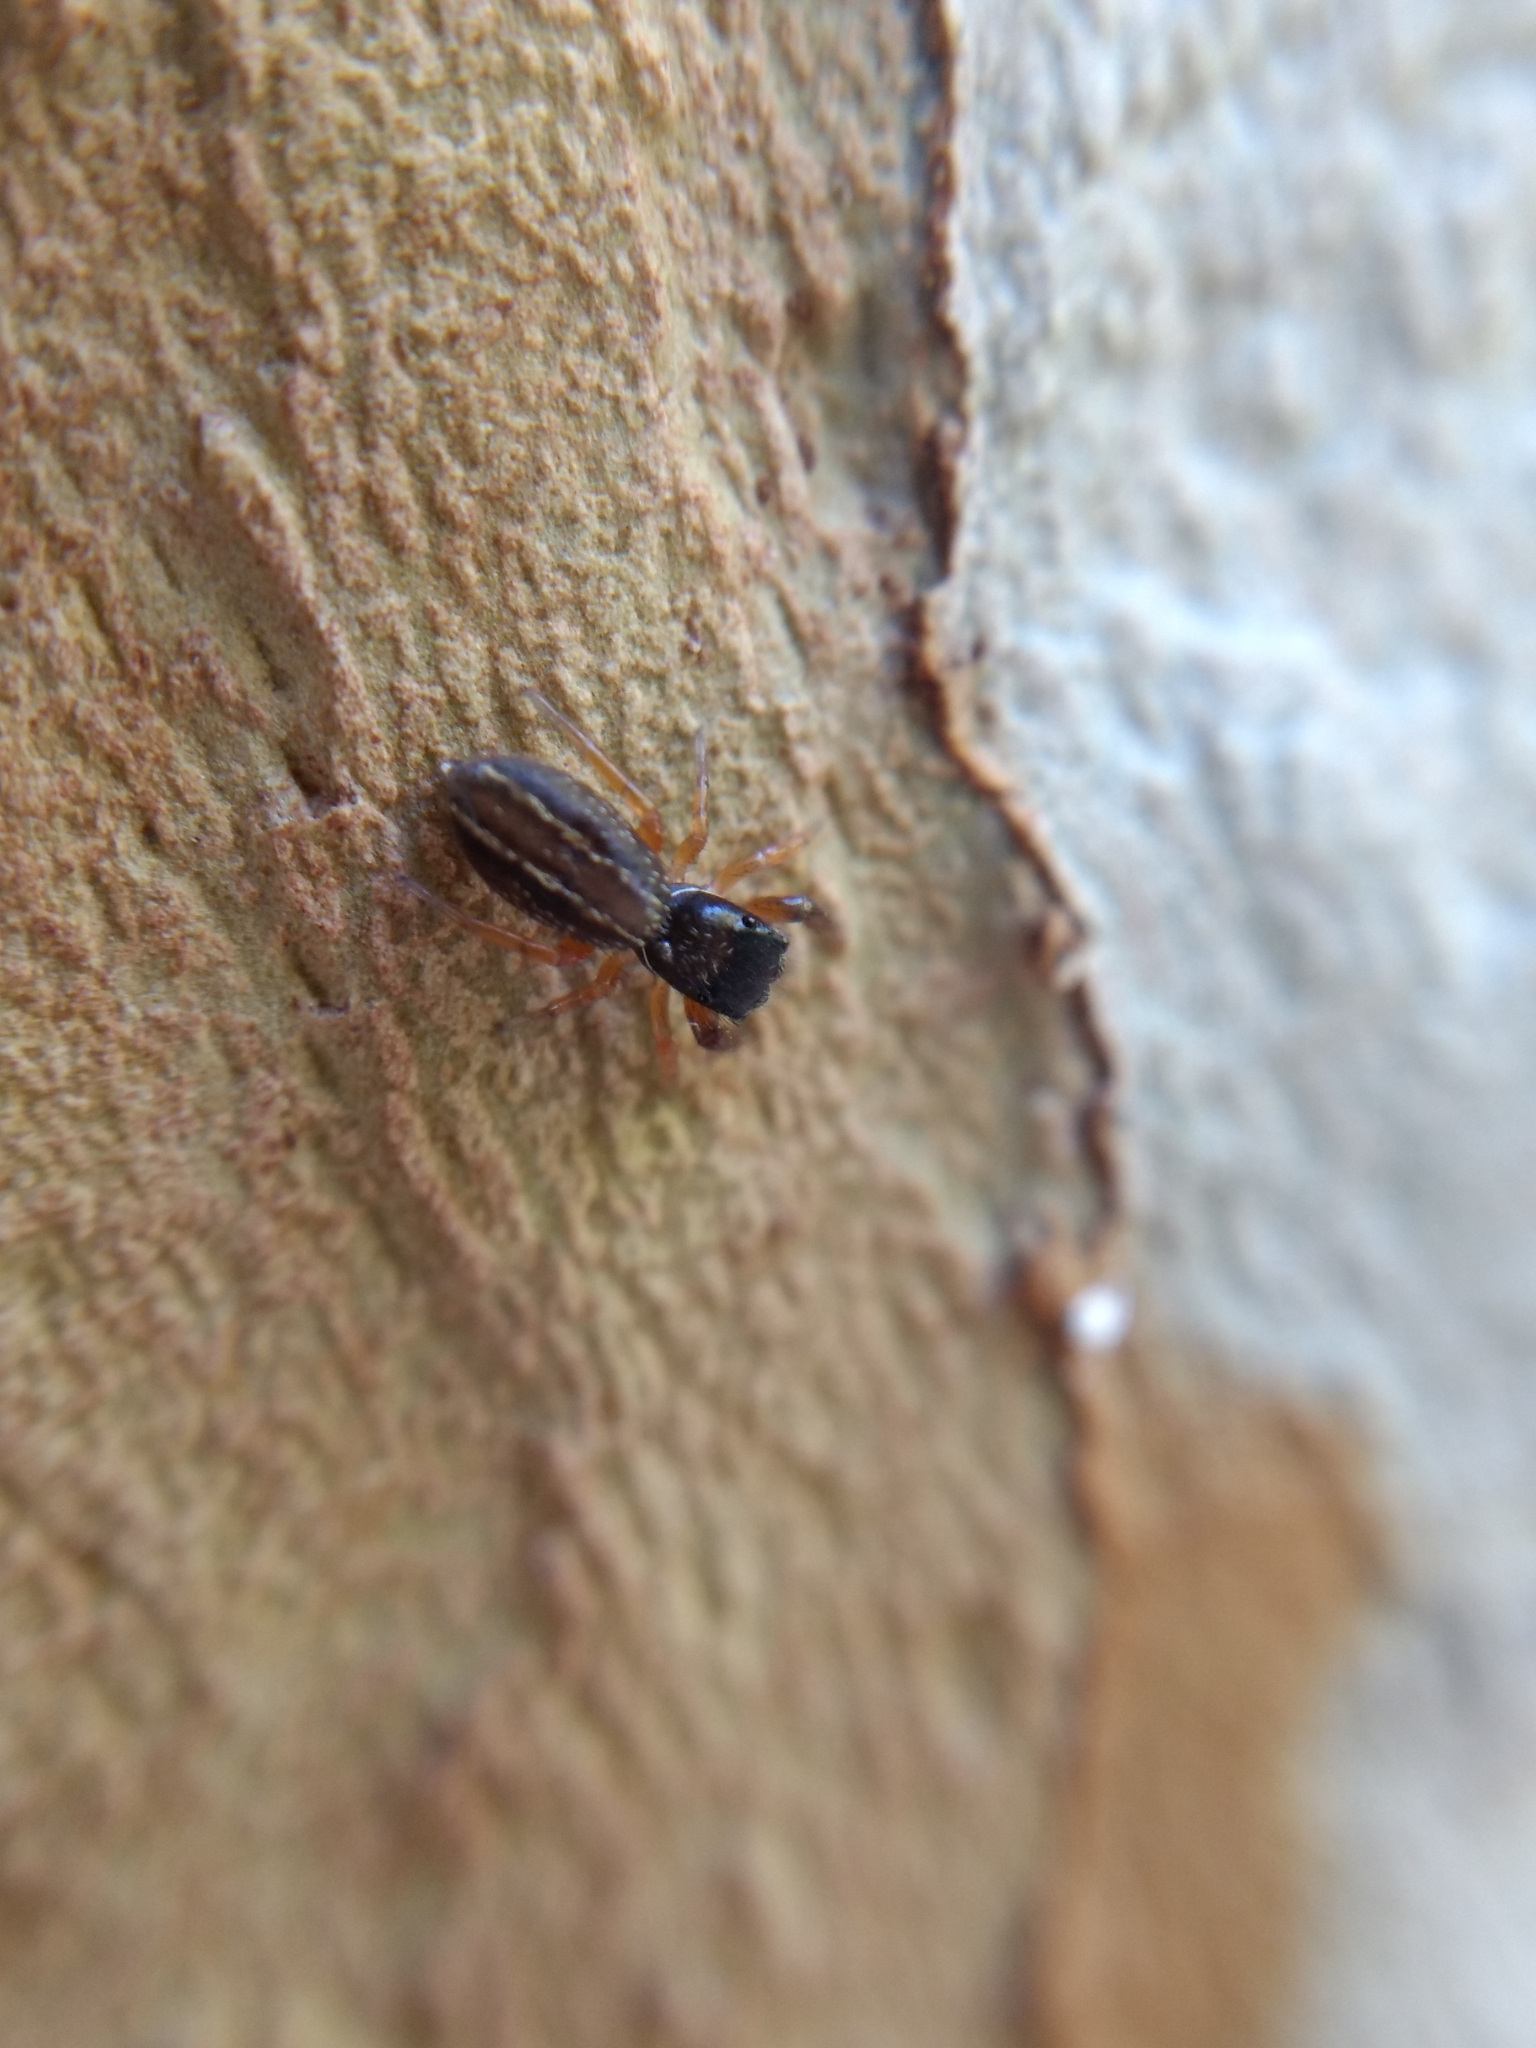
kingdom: Animalia
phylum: Arthropoda
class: Arachnida
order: Araneae
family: Salticidae
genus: Metacyrba
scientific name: Metacyrba taeniola
